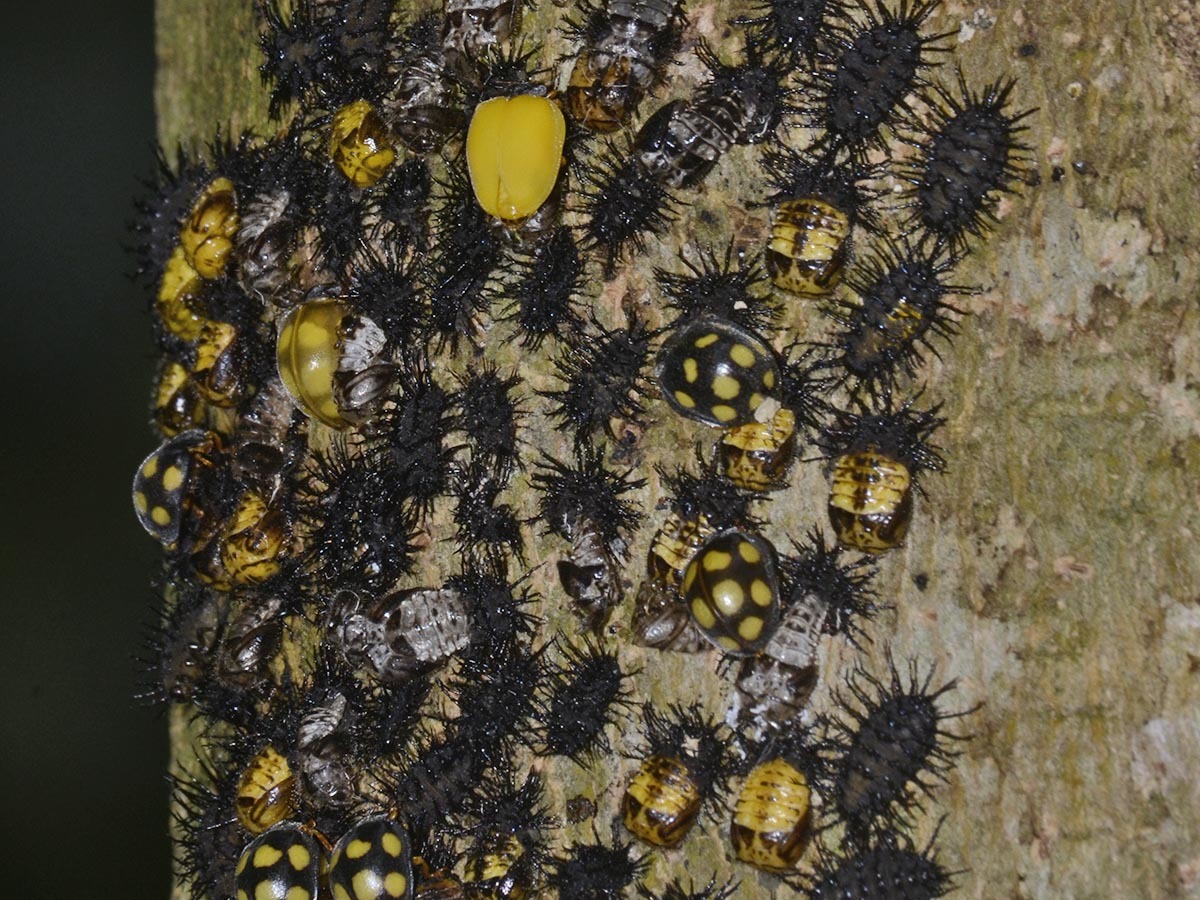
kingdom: Animalia
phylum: Arthropoda
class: Insecta
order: Coleoptera
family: Coccinellidae
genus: Epilachna
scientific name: Epilachna
